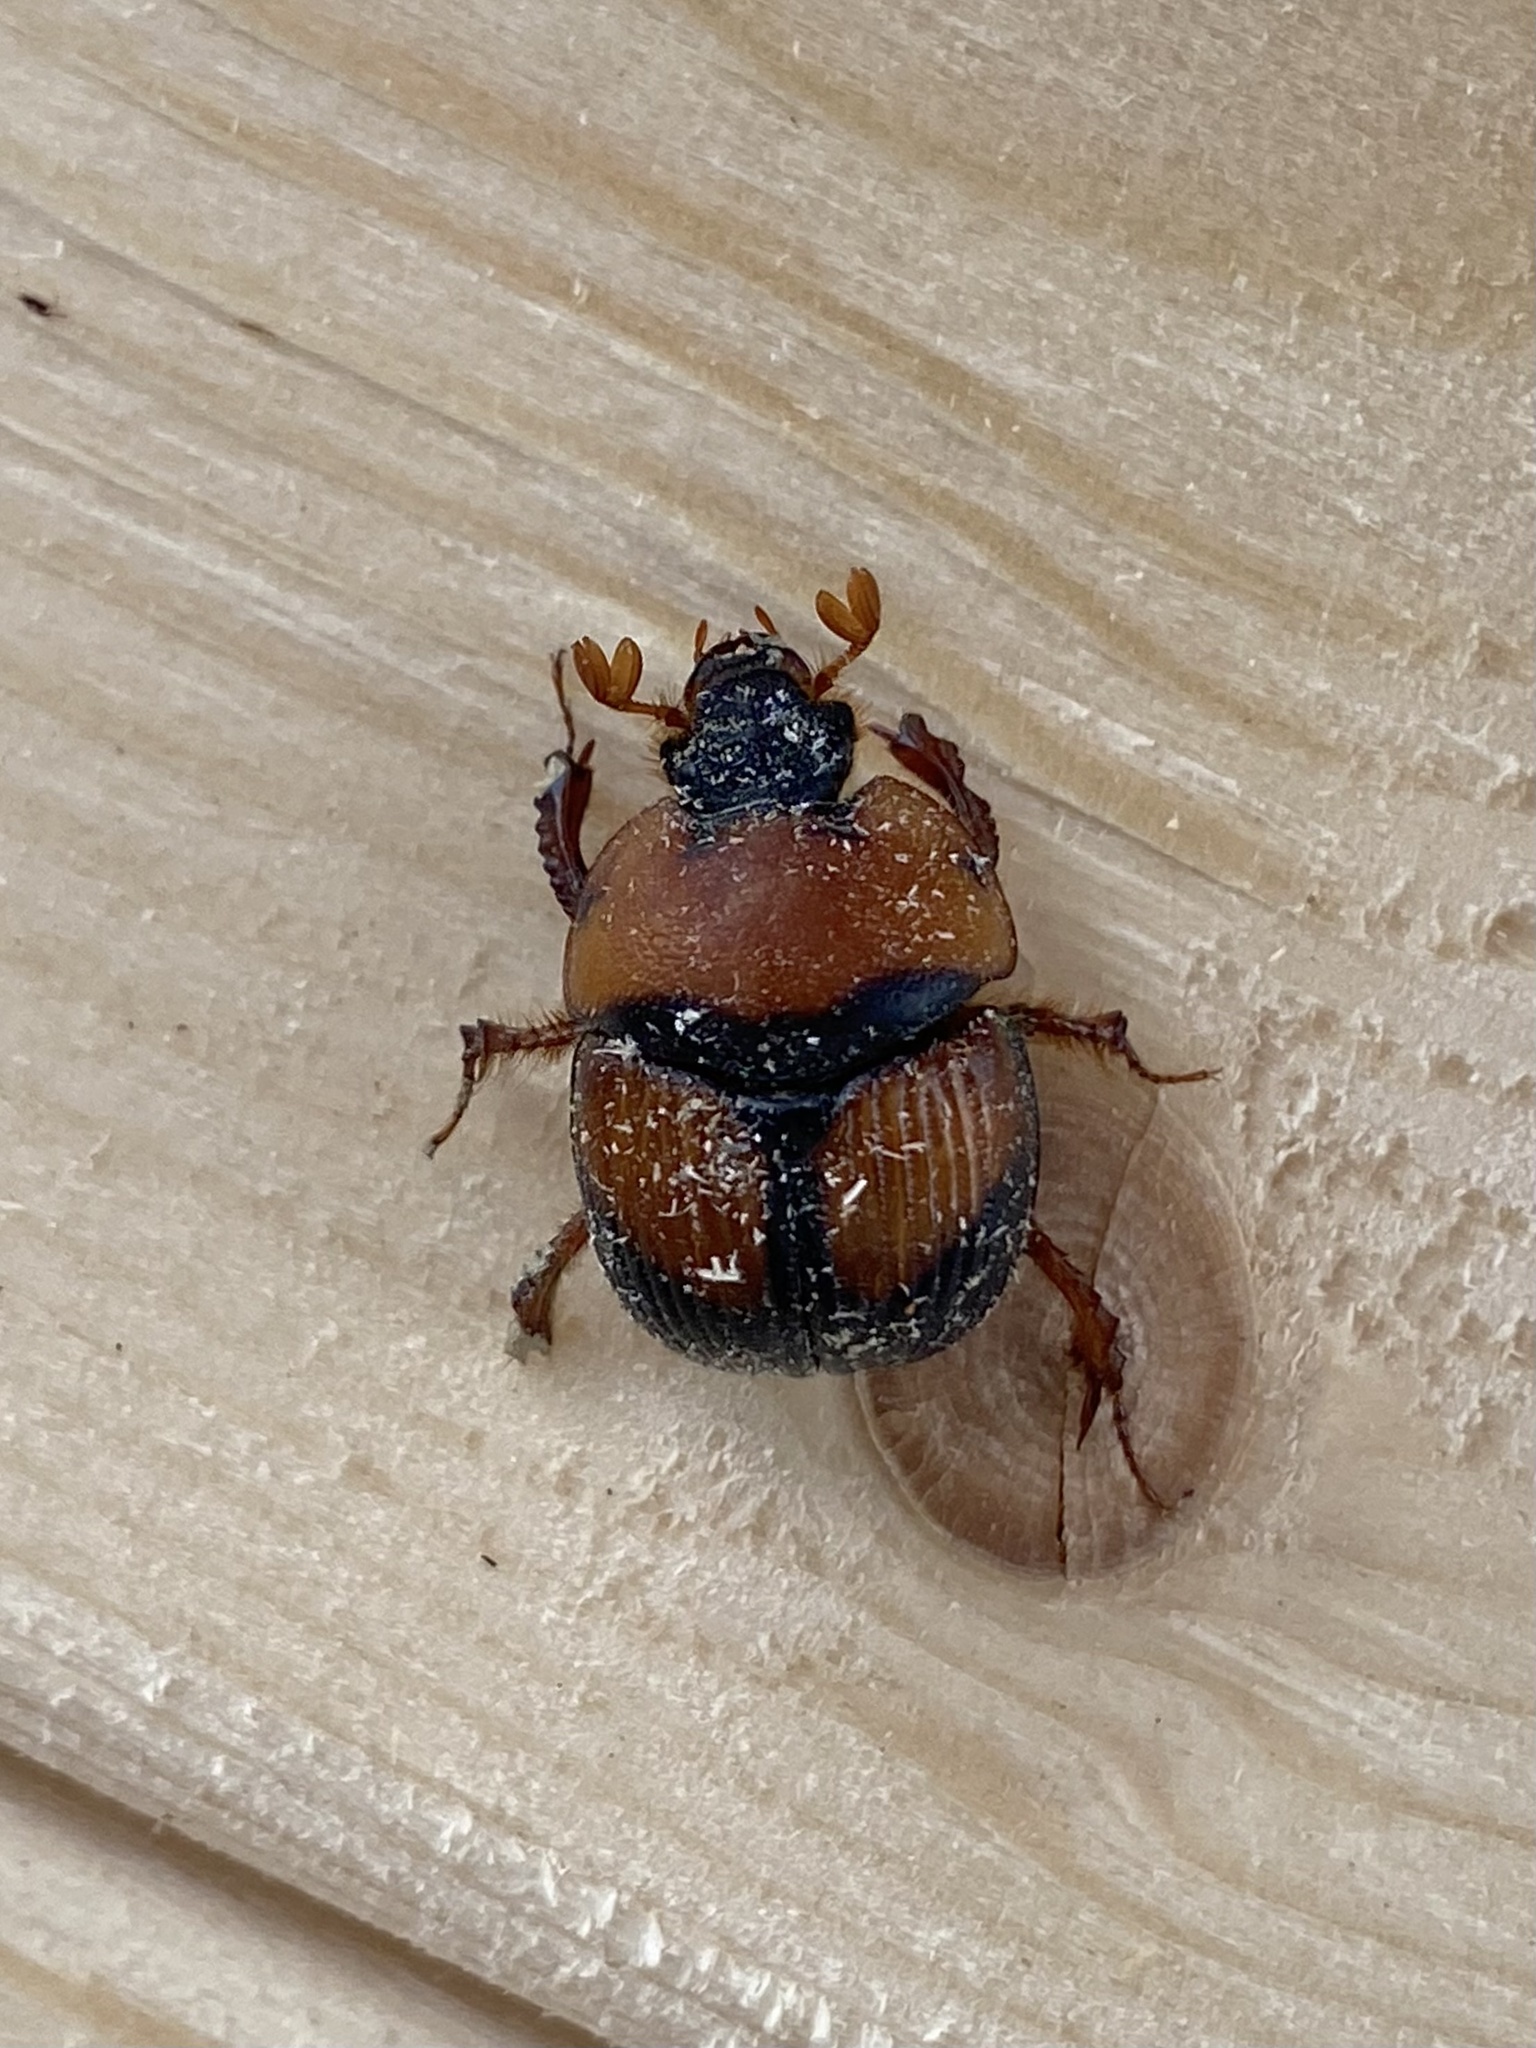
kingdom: Animalia
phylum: Arthropoda
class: Insecta
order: Coleoptera
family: Geotrupidae
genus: Bolbocerosoma
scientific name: Bolbocerosoma bruneri
